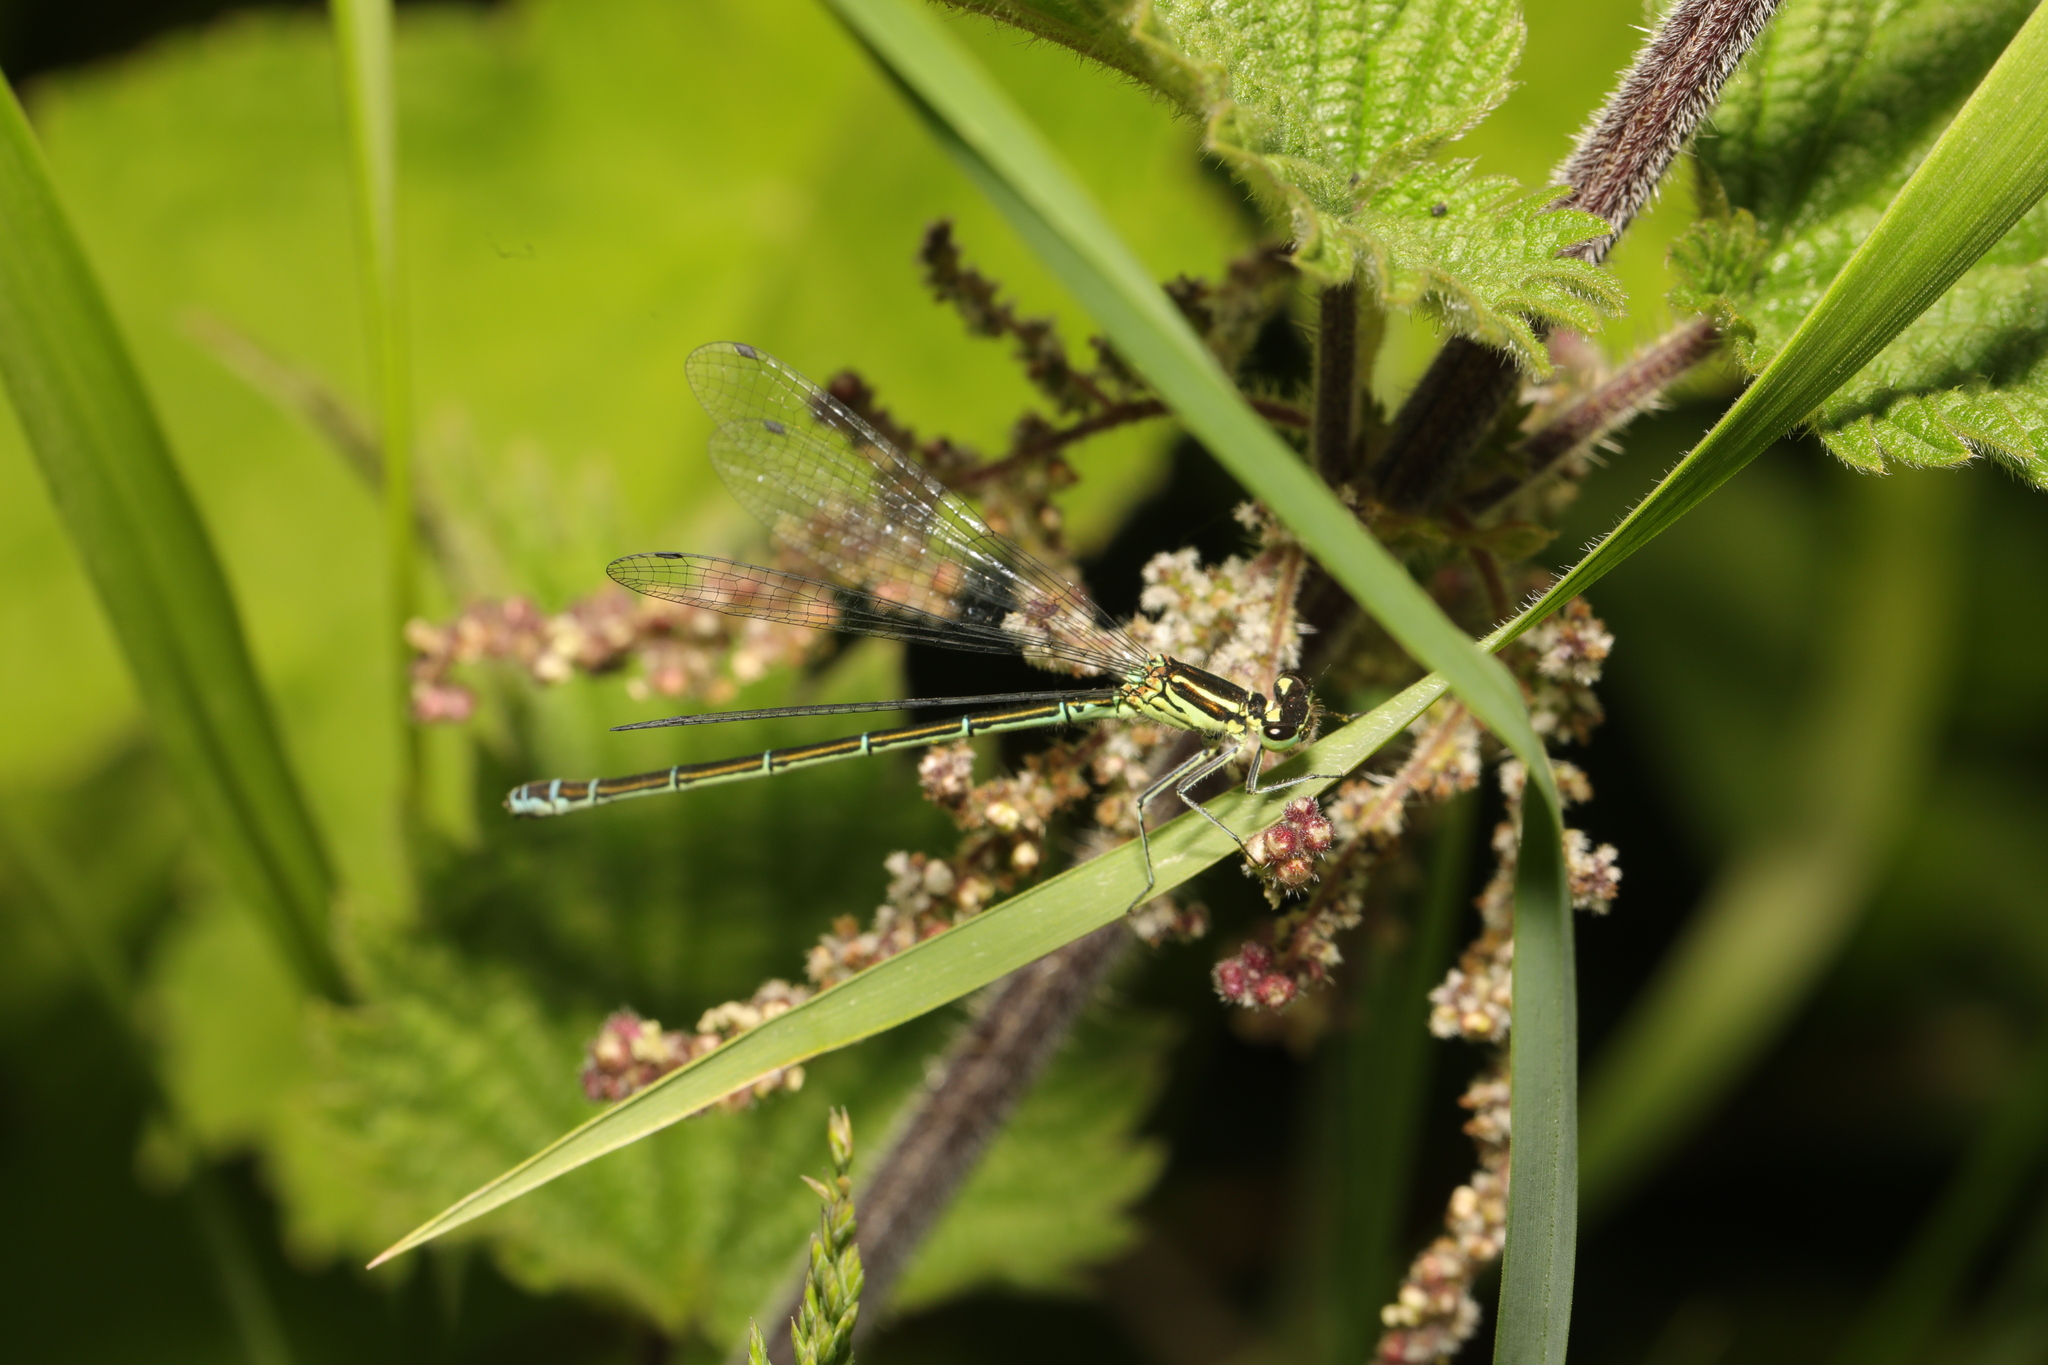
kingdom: Animalia
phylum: Arthropoda
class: Insecta
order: Odonata
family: Coenagrionidae
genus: Coenagrion
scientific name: Coenagrion puella
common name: Azure damselfly
